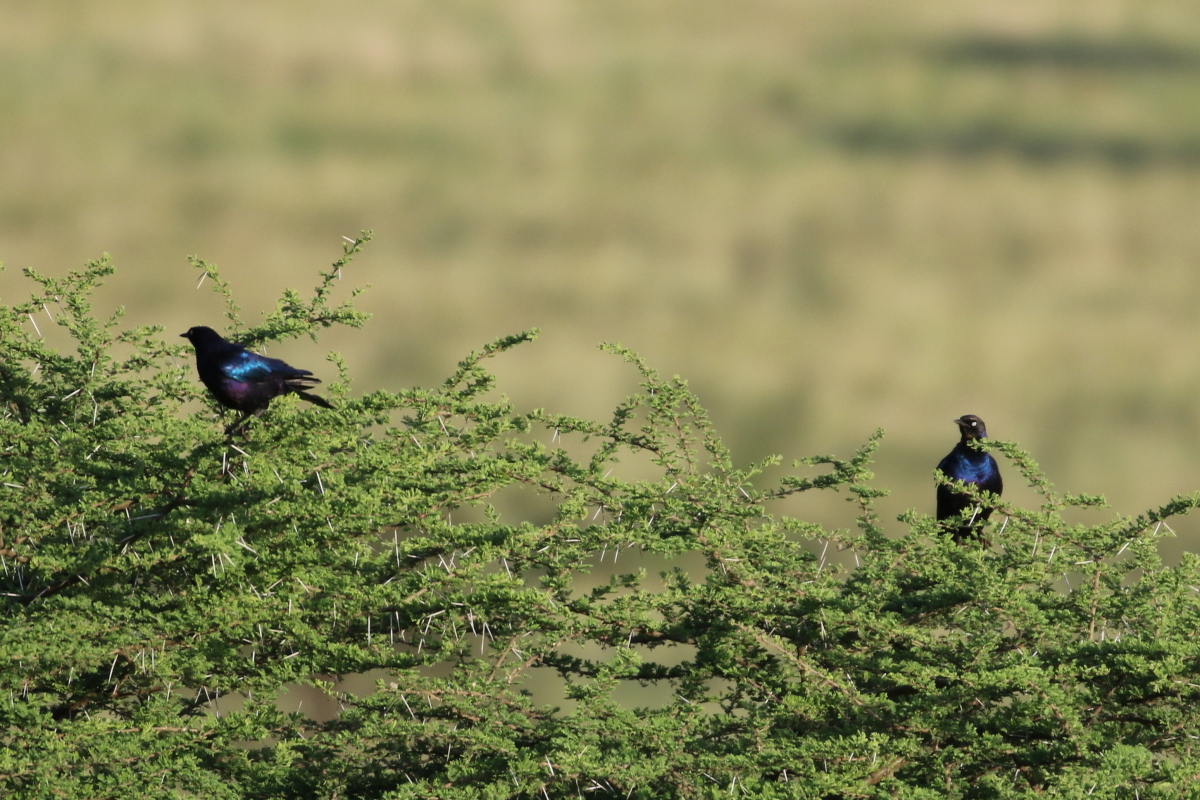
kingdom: Animalia
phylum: Chordata
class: Aves
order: Passeriformes
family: Sturnidae
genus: Lamprotornis
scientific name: Lamprotornis purpuroptera
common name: Rüppell's starling
